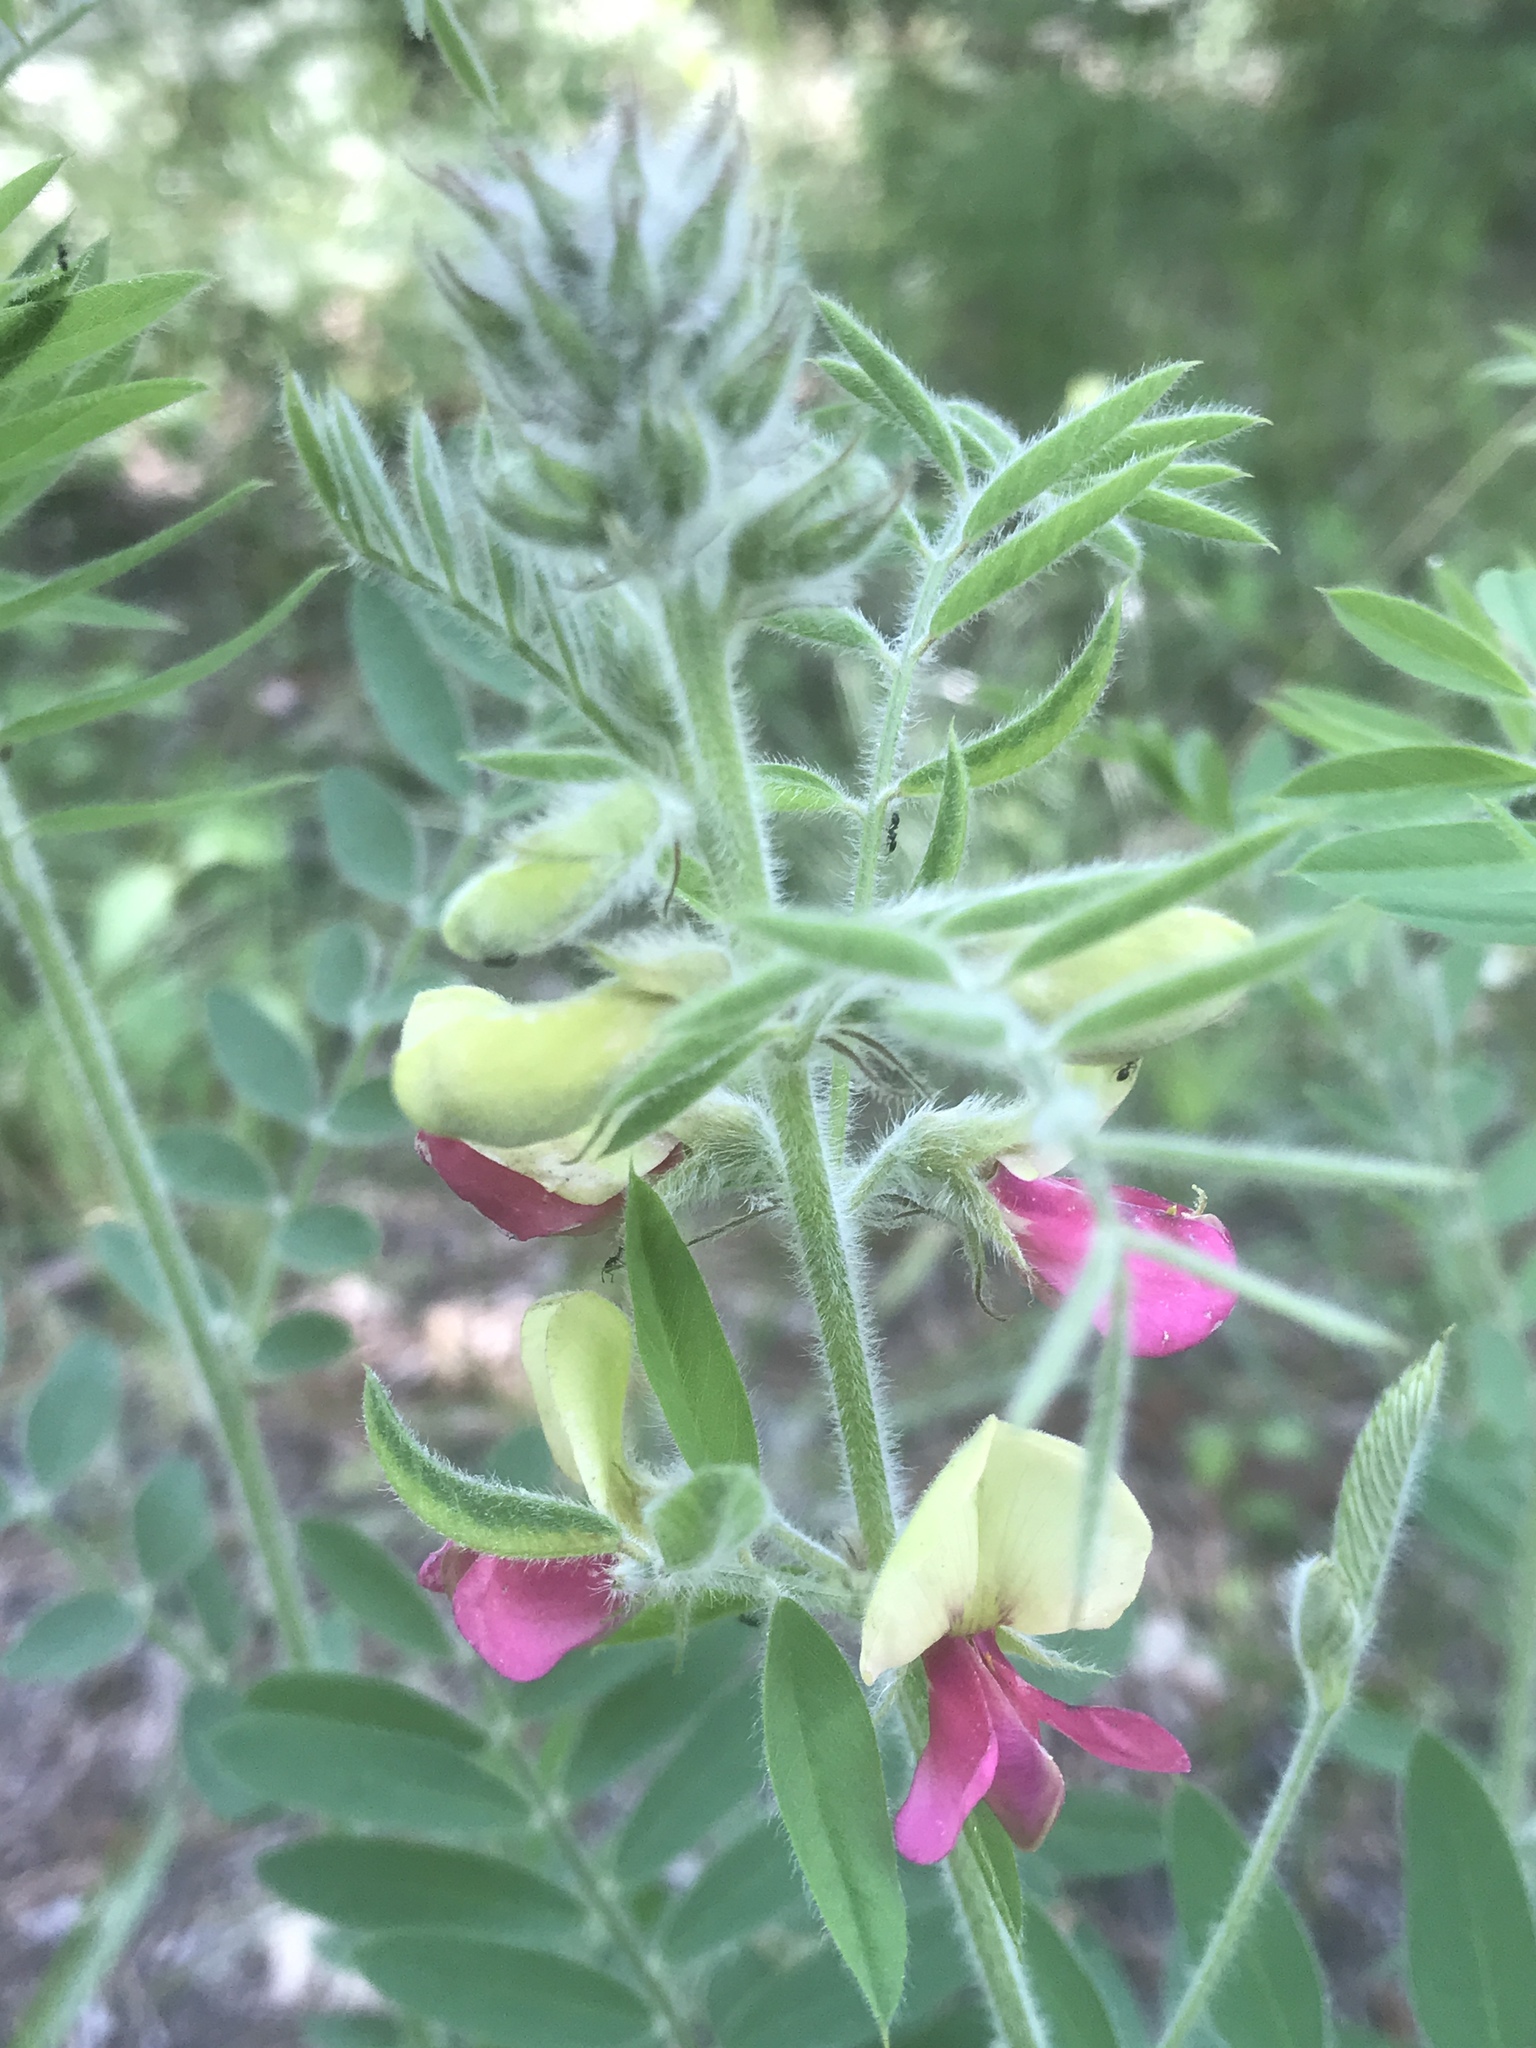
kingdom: Plantae
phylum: Tracheophyta
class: Magnoliopsida
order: Fabales
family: Fabaceae
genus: Tephrosia
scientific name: Tephrosia virginiana
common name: Rabbit-pea
